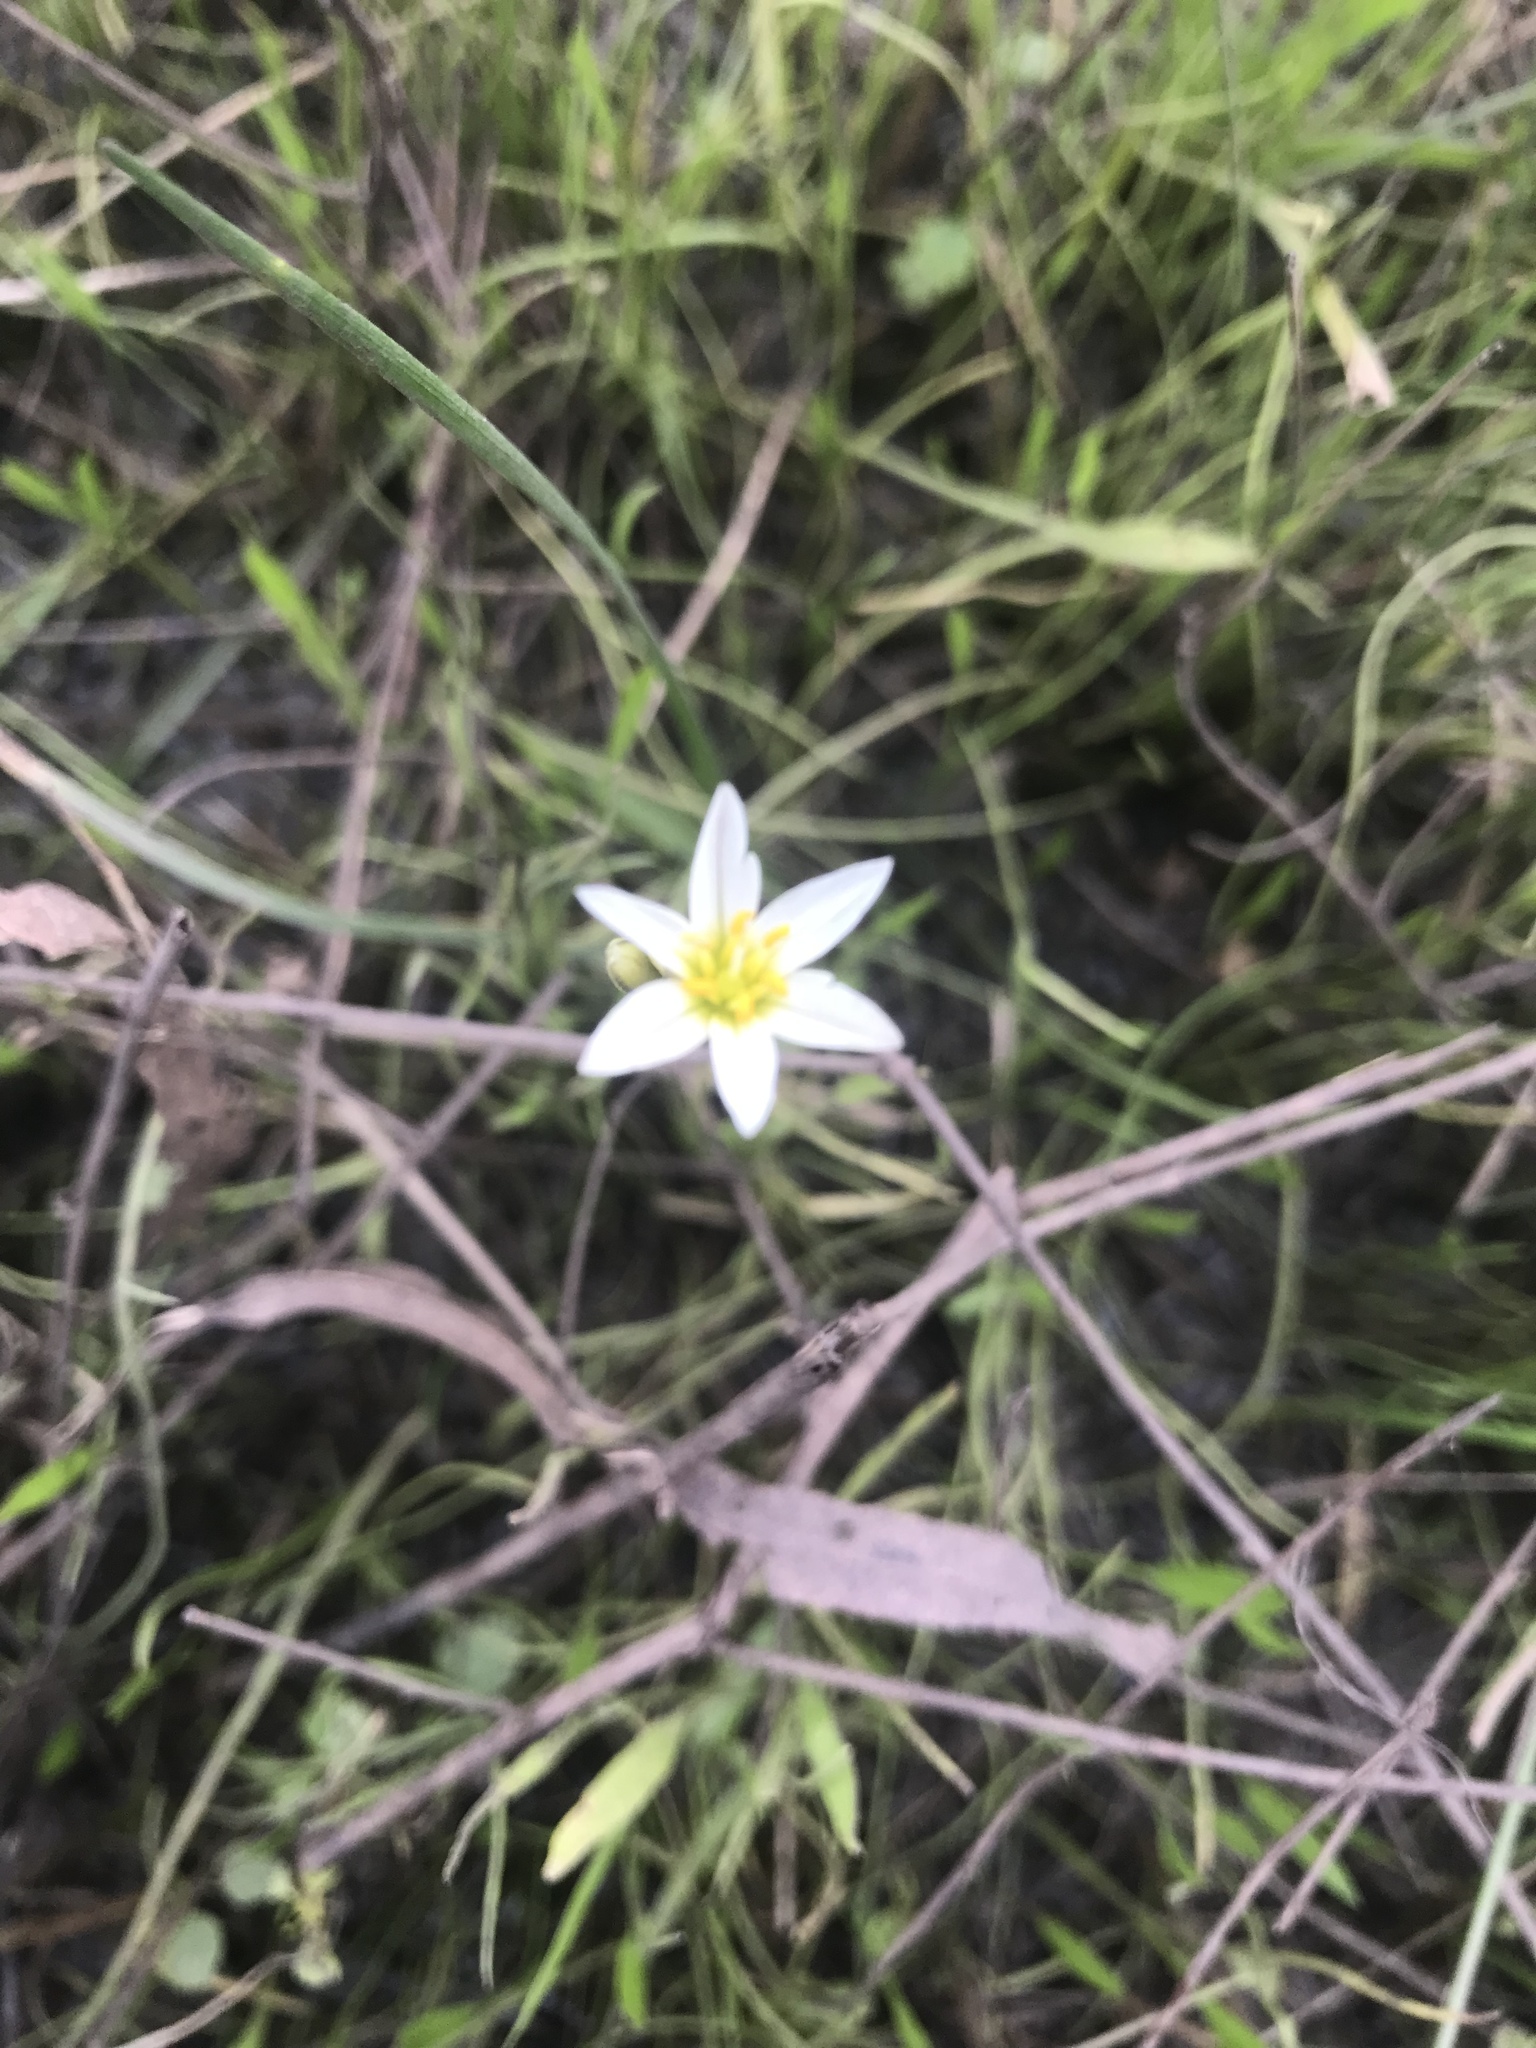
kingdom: Plantae
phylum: Tracheophyta
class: Liliopsida
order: Asparagales
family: Amaryllidaceae
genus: Nothoscordum
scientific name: Nothoscordum bivalve
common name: Crow-poison
